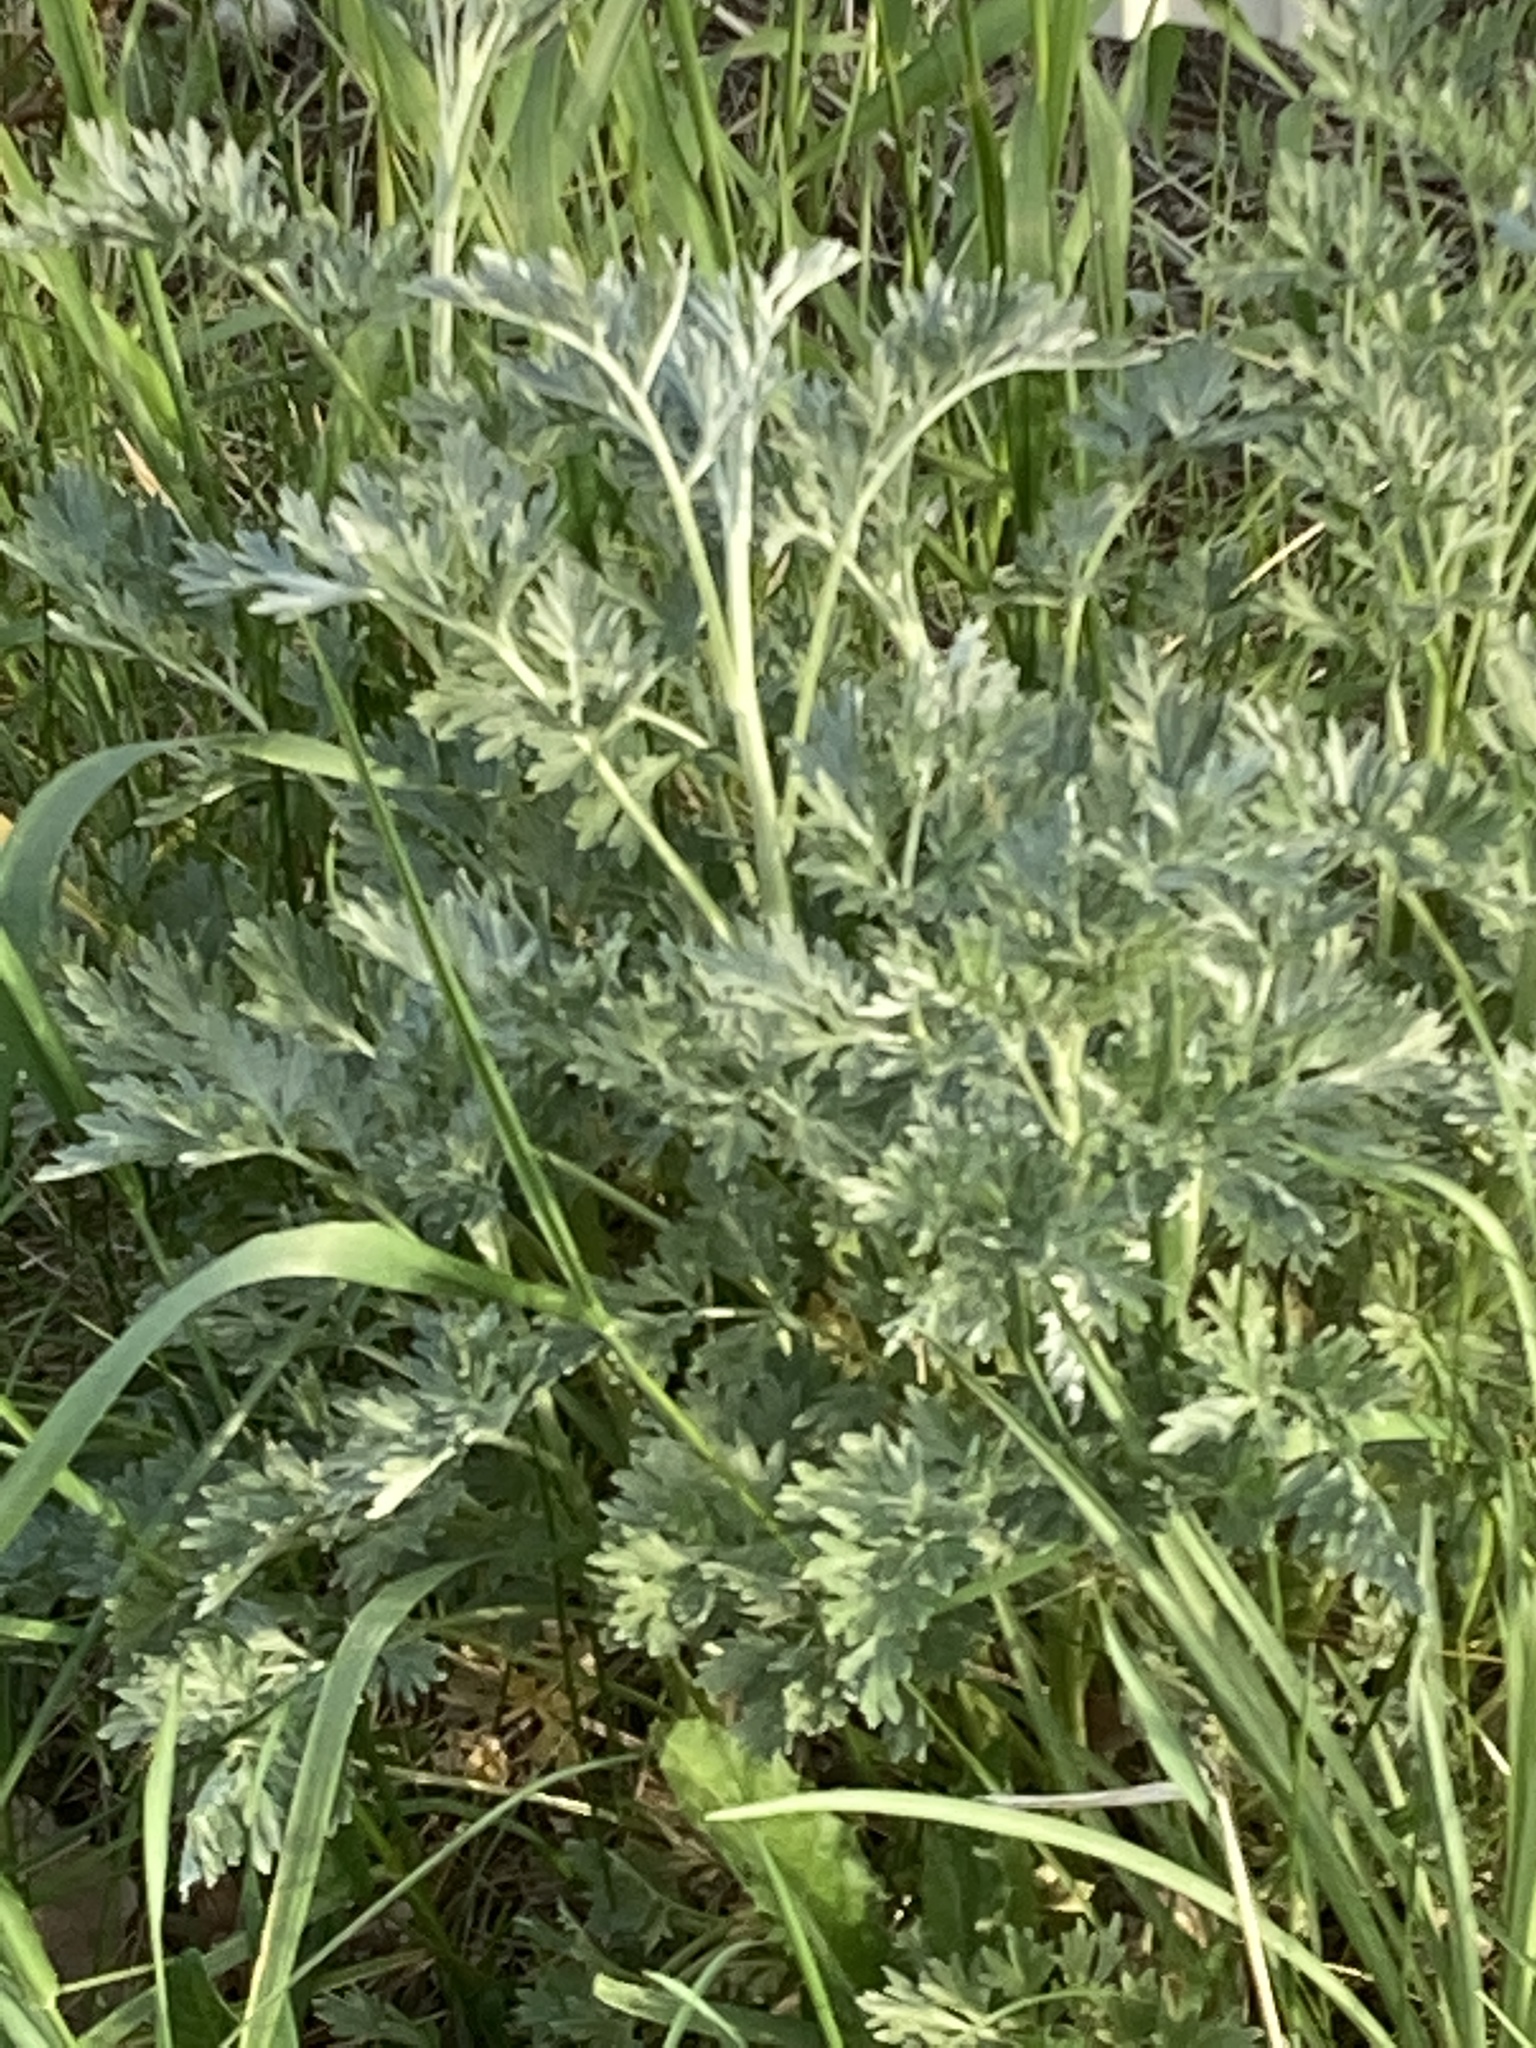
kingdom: Plantae
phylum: Tracheophyta
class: Magnoliopsida
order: Asterales
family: Asteraceae
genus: Artemisia
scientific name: Artemisia absinthium
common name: Wormwood
